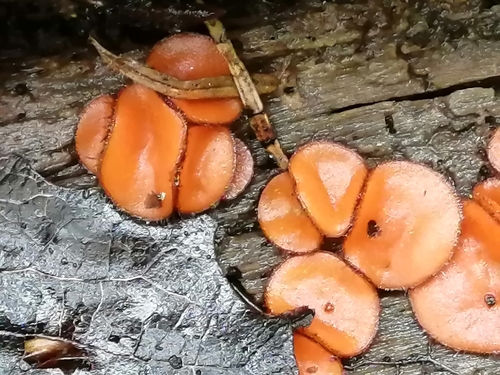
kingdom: Fungi
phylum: Ascomycota
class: Pezizomycetes
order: Pezizales
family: Pyronemataceae
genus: Scutellinia
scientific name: Scutellinia
